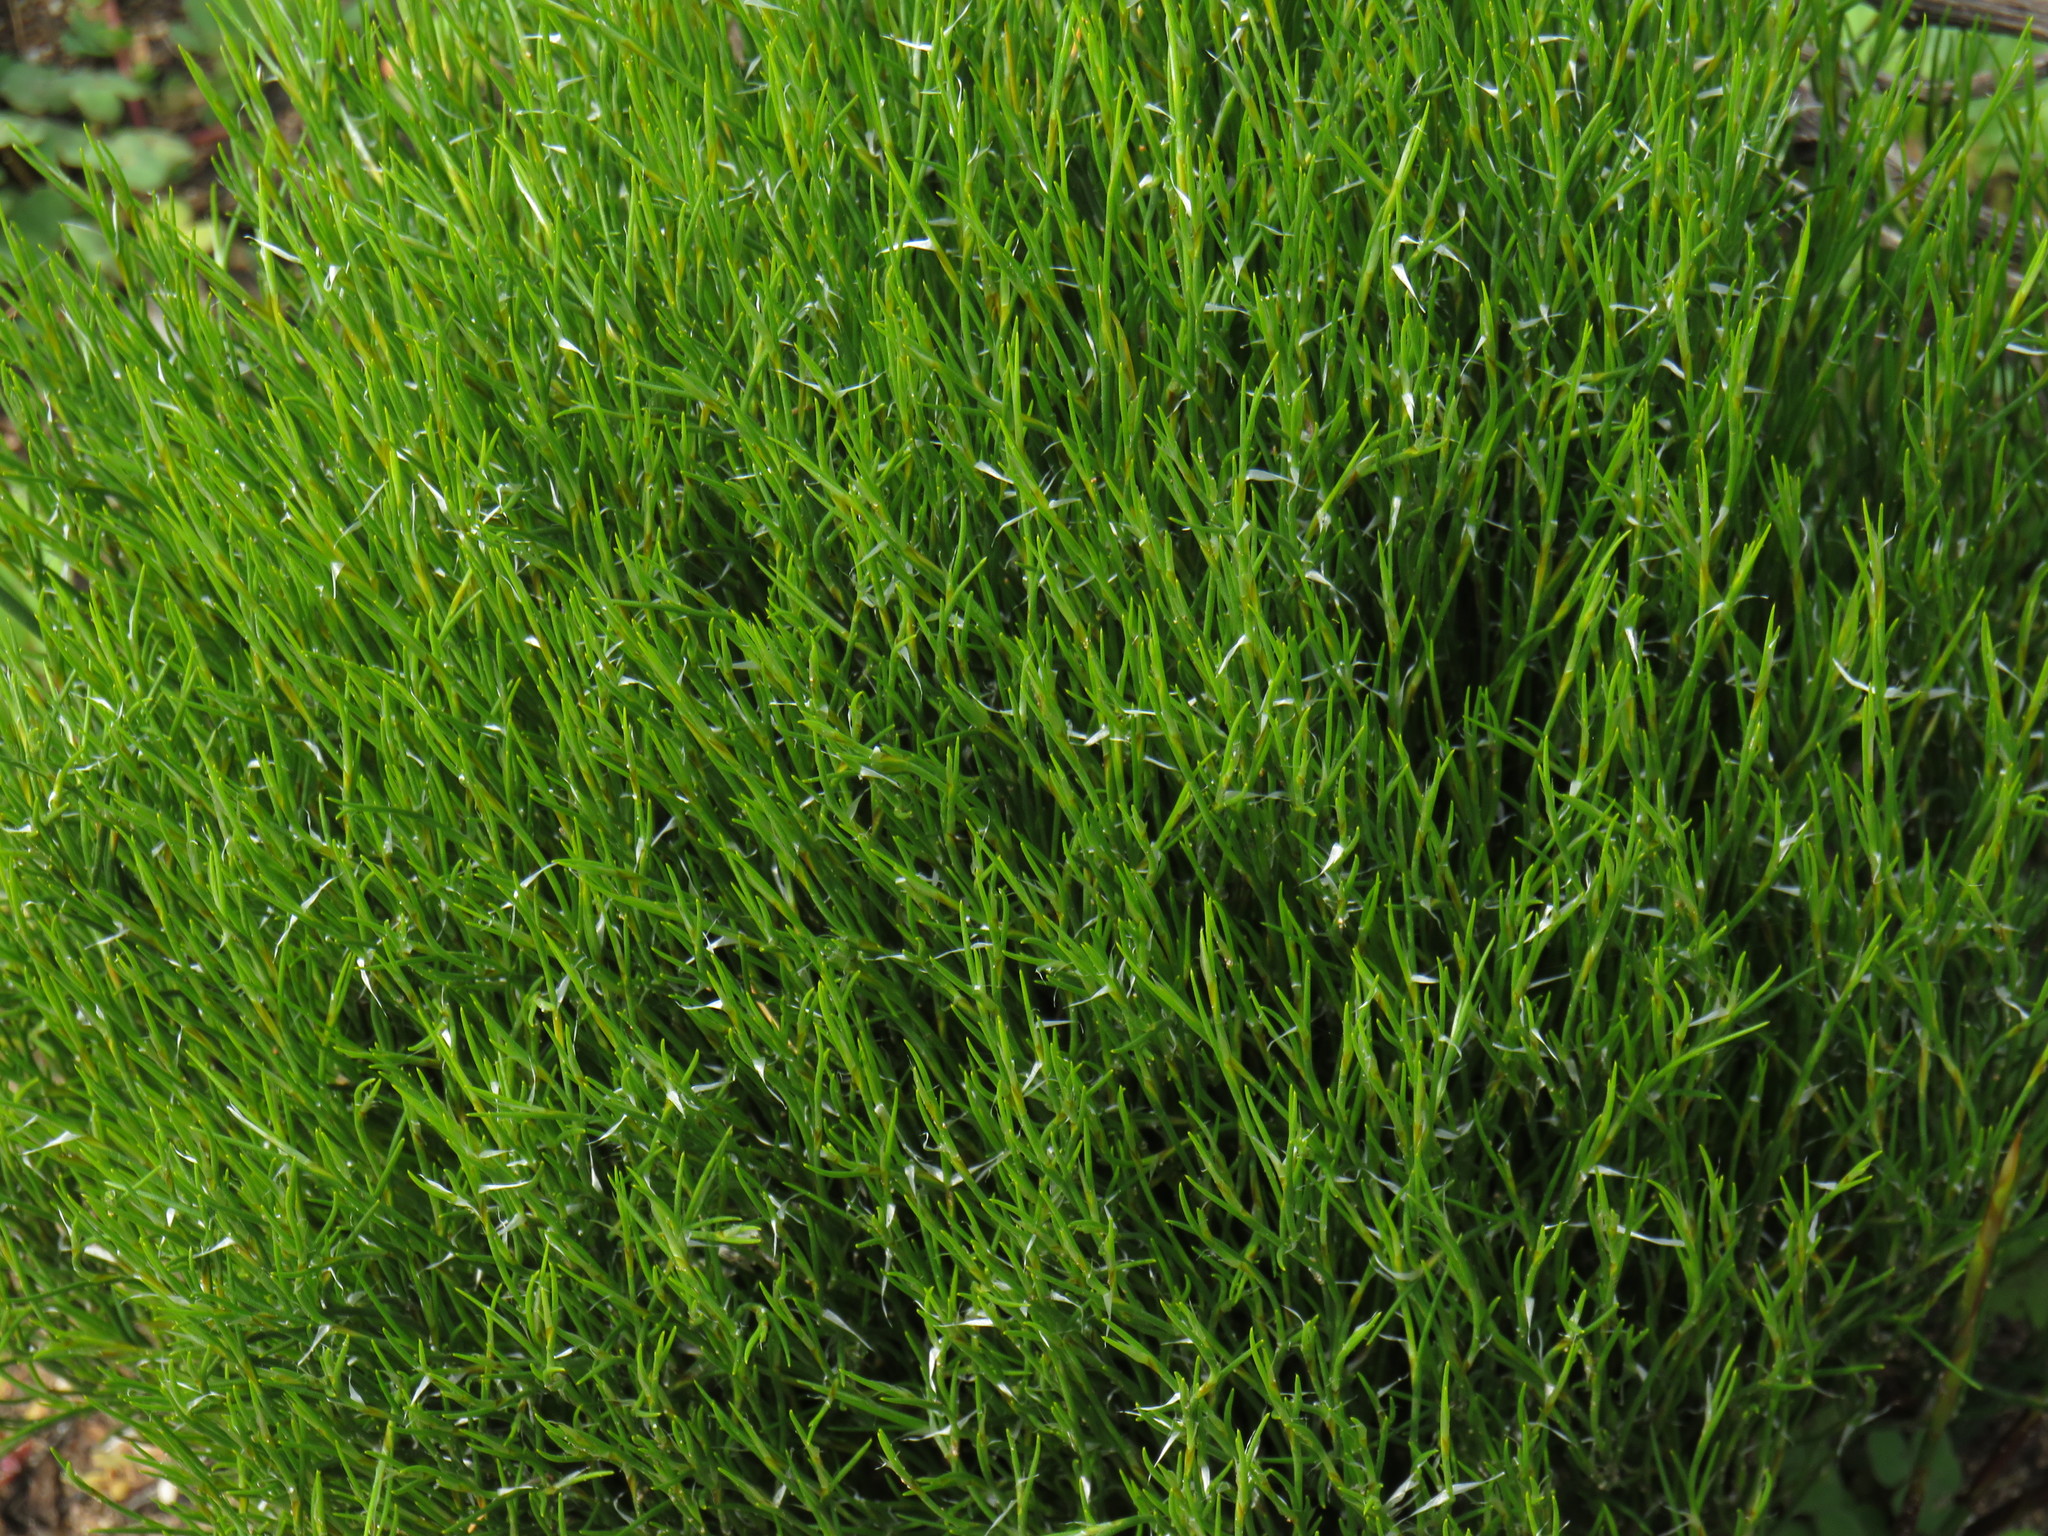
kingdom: Plantae
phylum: Tracheophyta
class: Liliopsida
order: Poales
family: Restionaceae
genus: Restio
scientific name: Restio capensis
